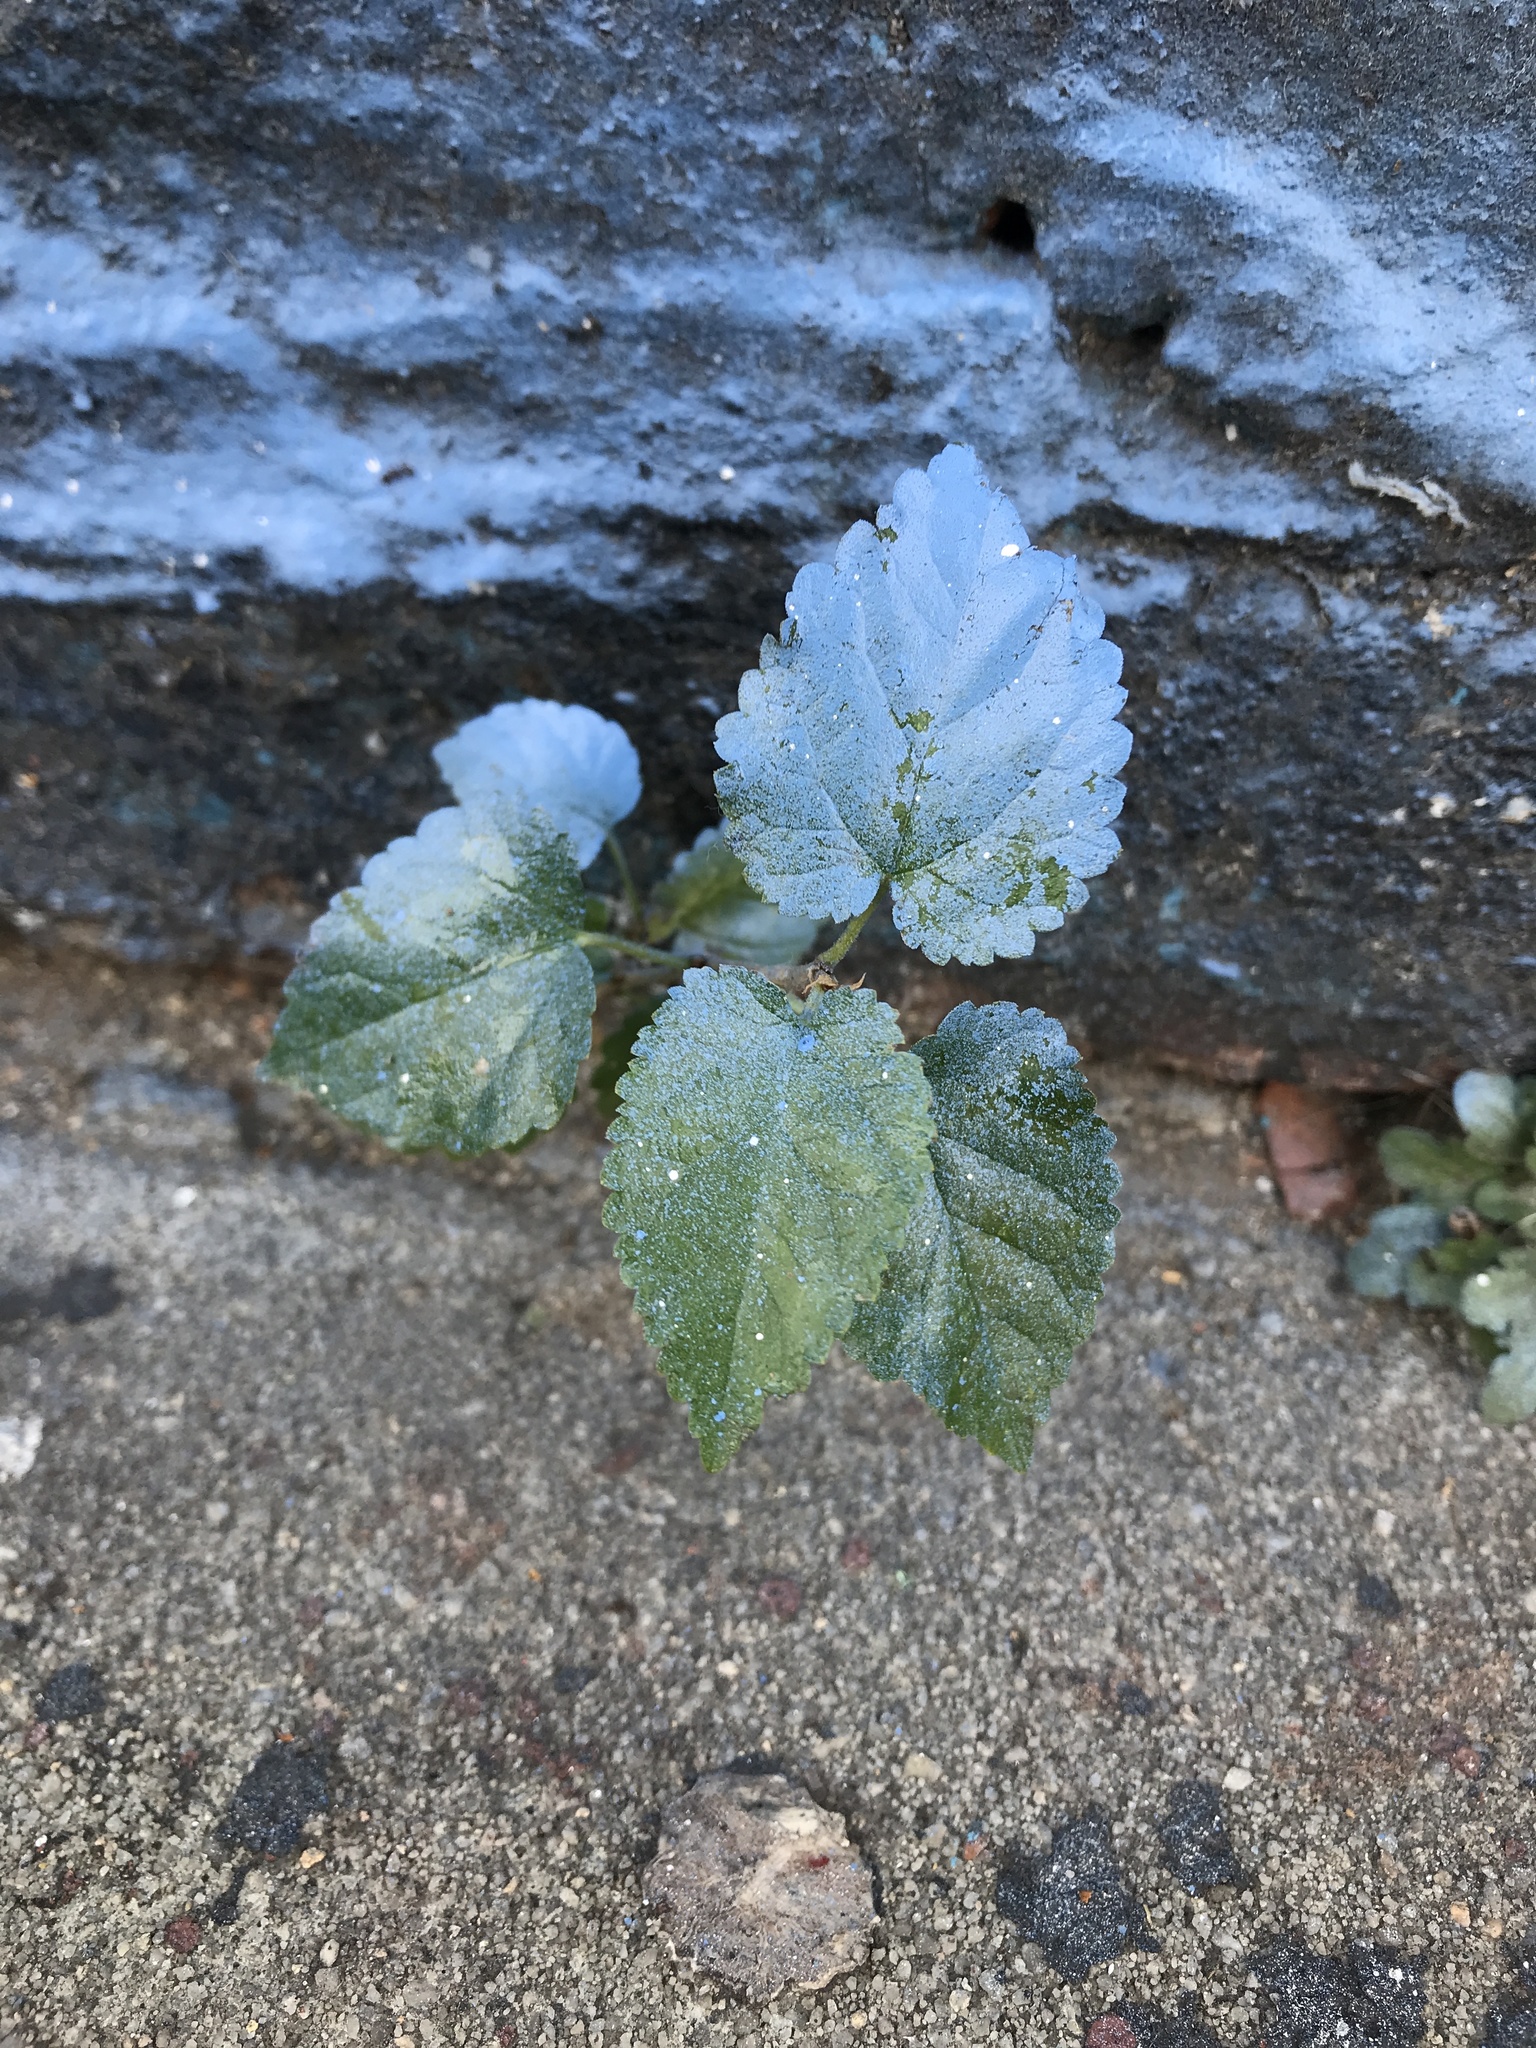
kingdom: Plantae
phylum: Tracheophyta
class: Magnoliopsida
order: Rosales
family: Moraceae
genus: Morus
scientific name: Morus alba
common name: White mulberry
